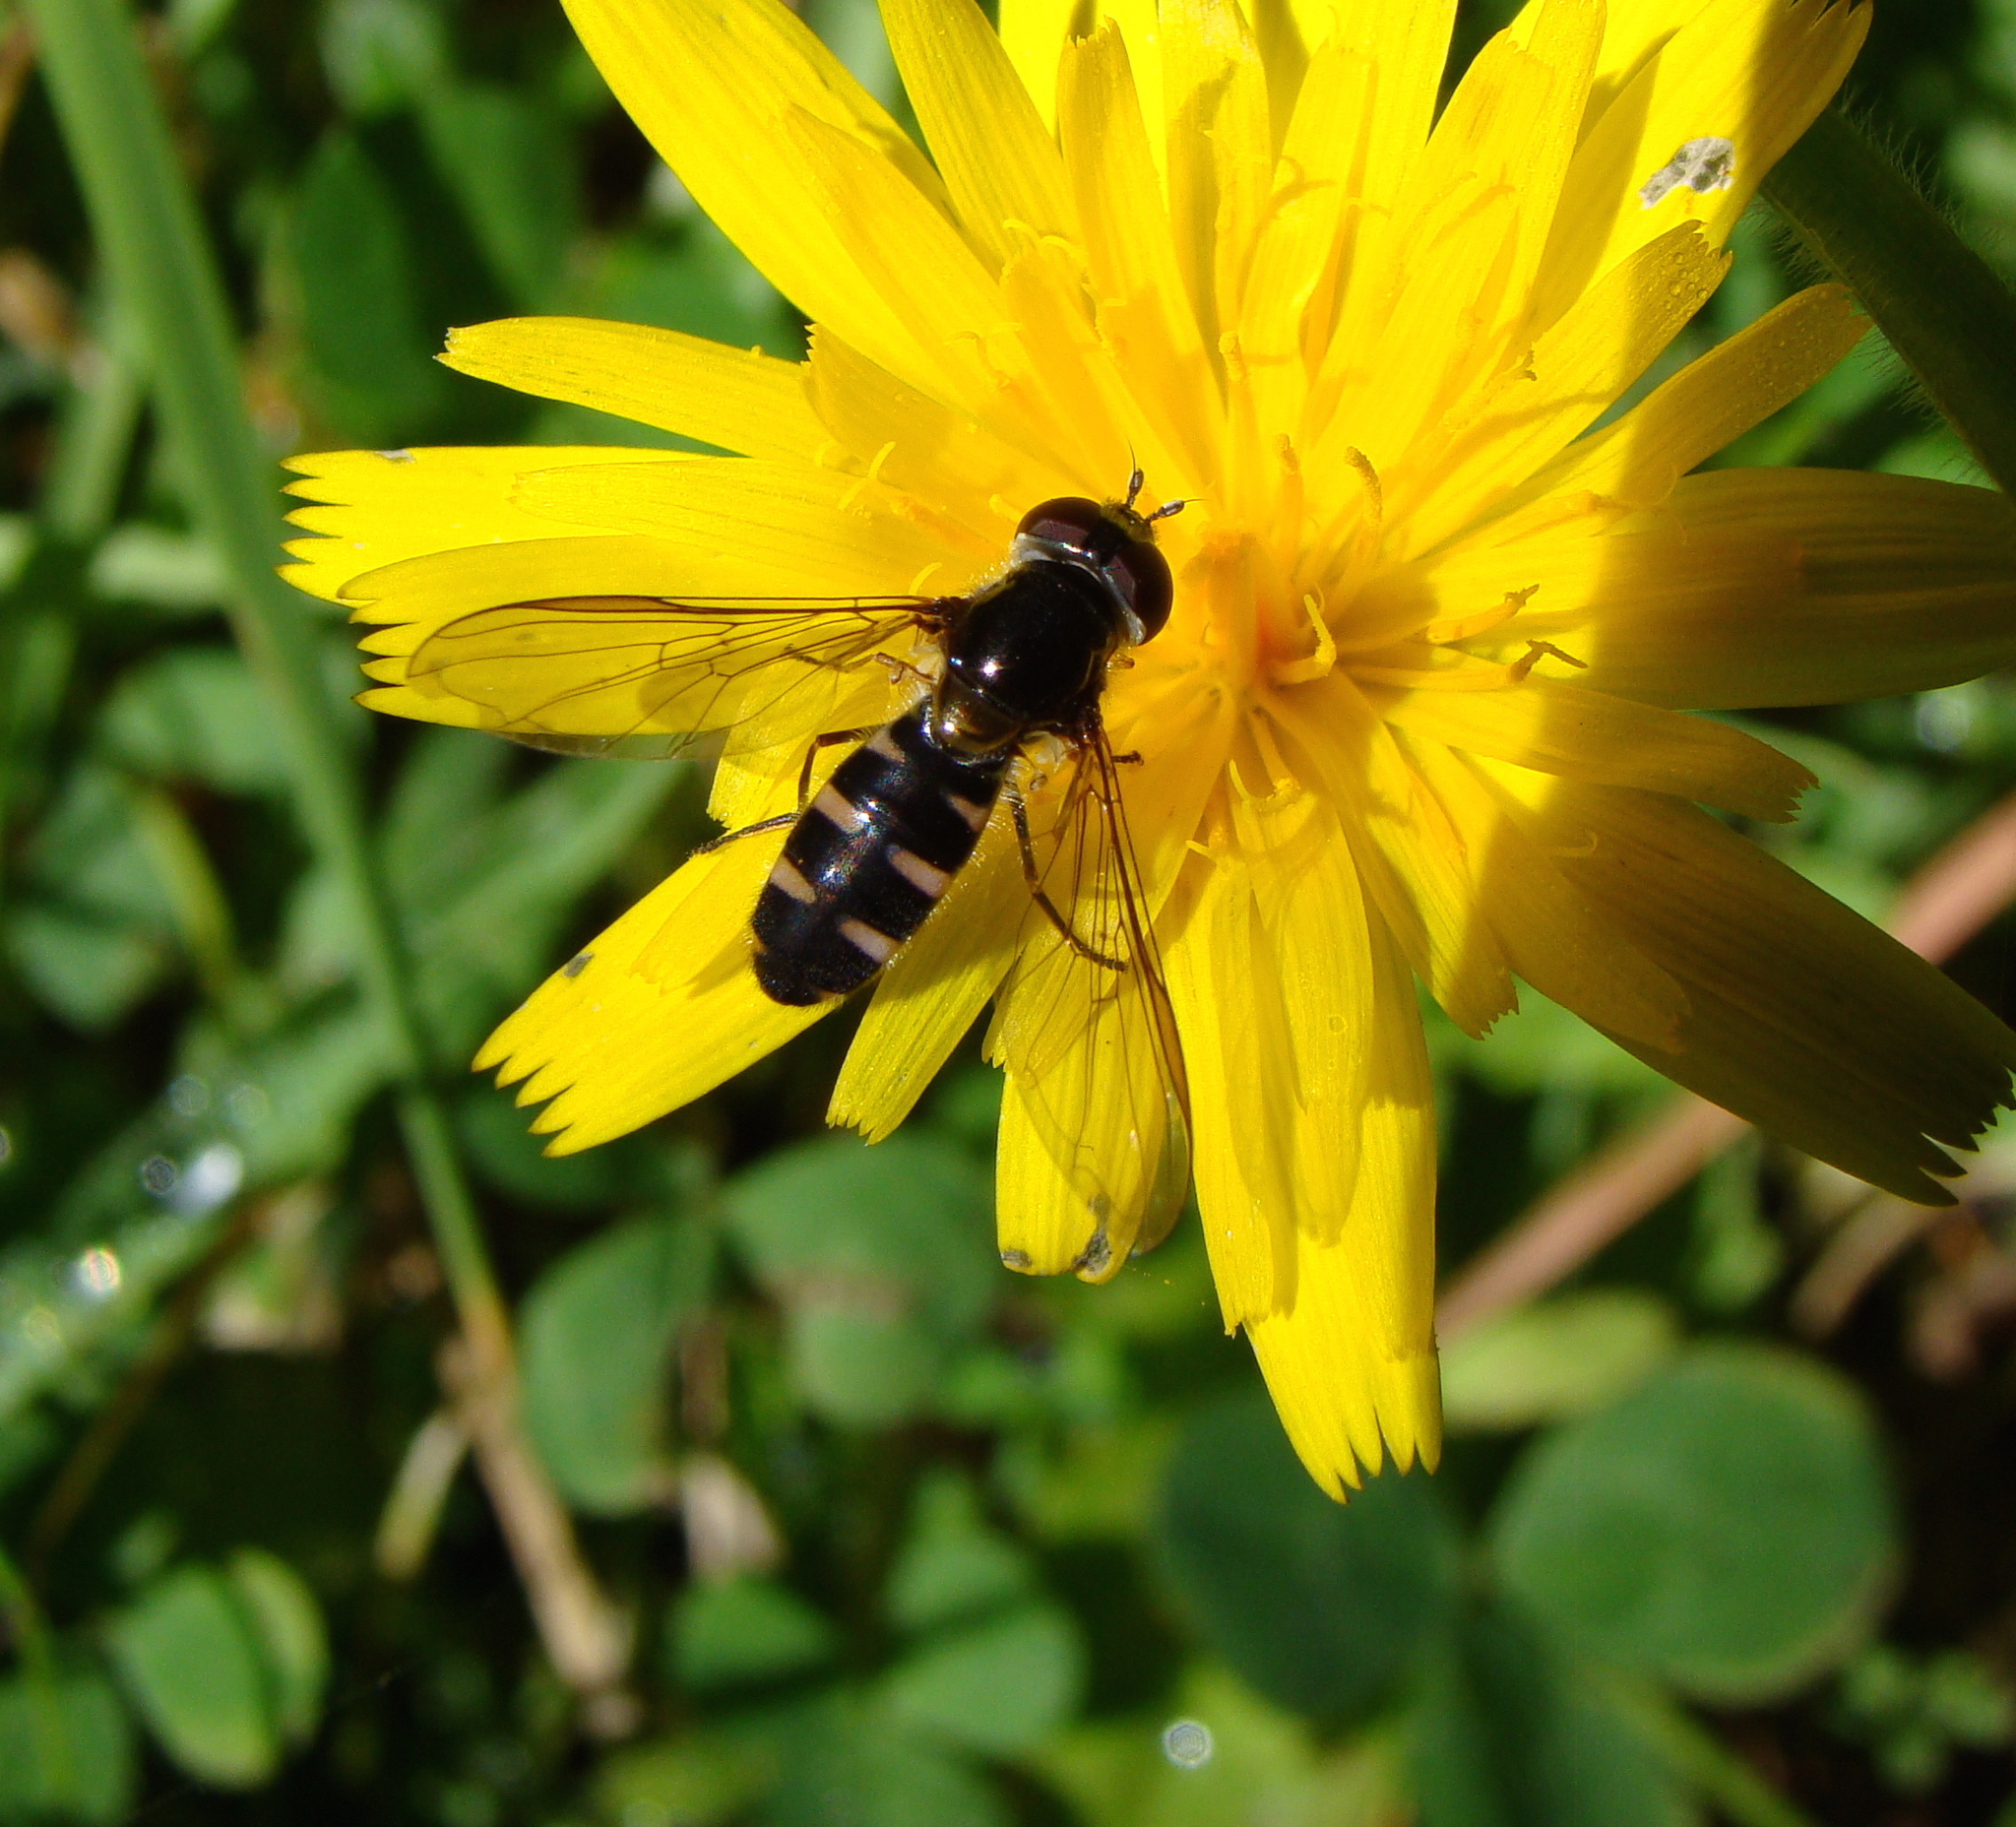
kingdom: Animalia
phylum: Arthropoda
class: Insecta
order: Diptera
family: Syrphidae
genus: Melangyna
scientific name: Melangyna novaezelandiae
